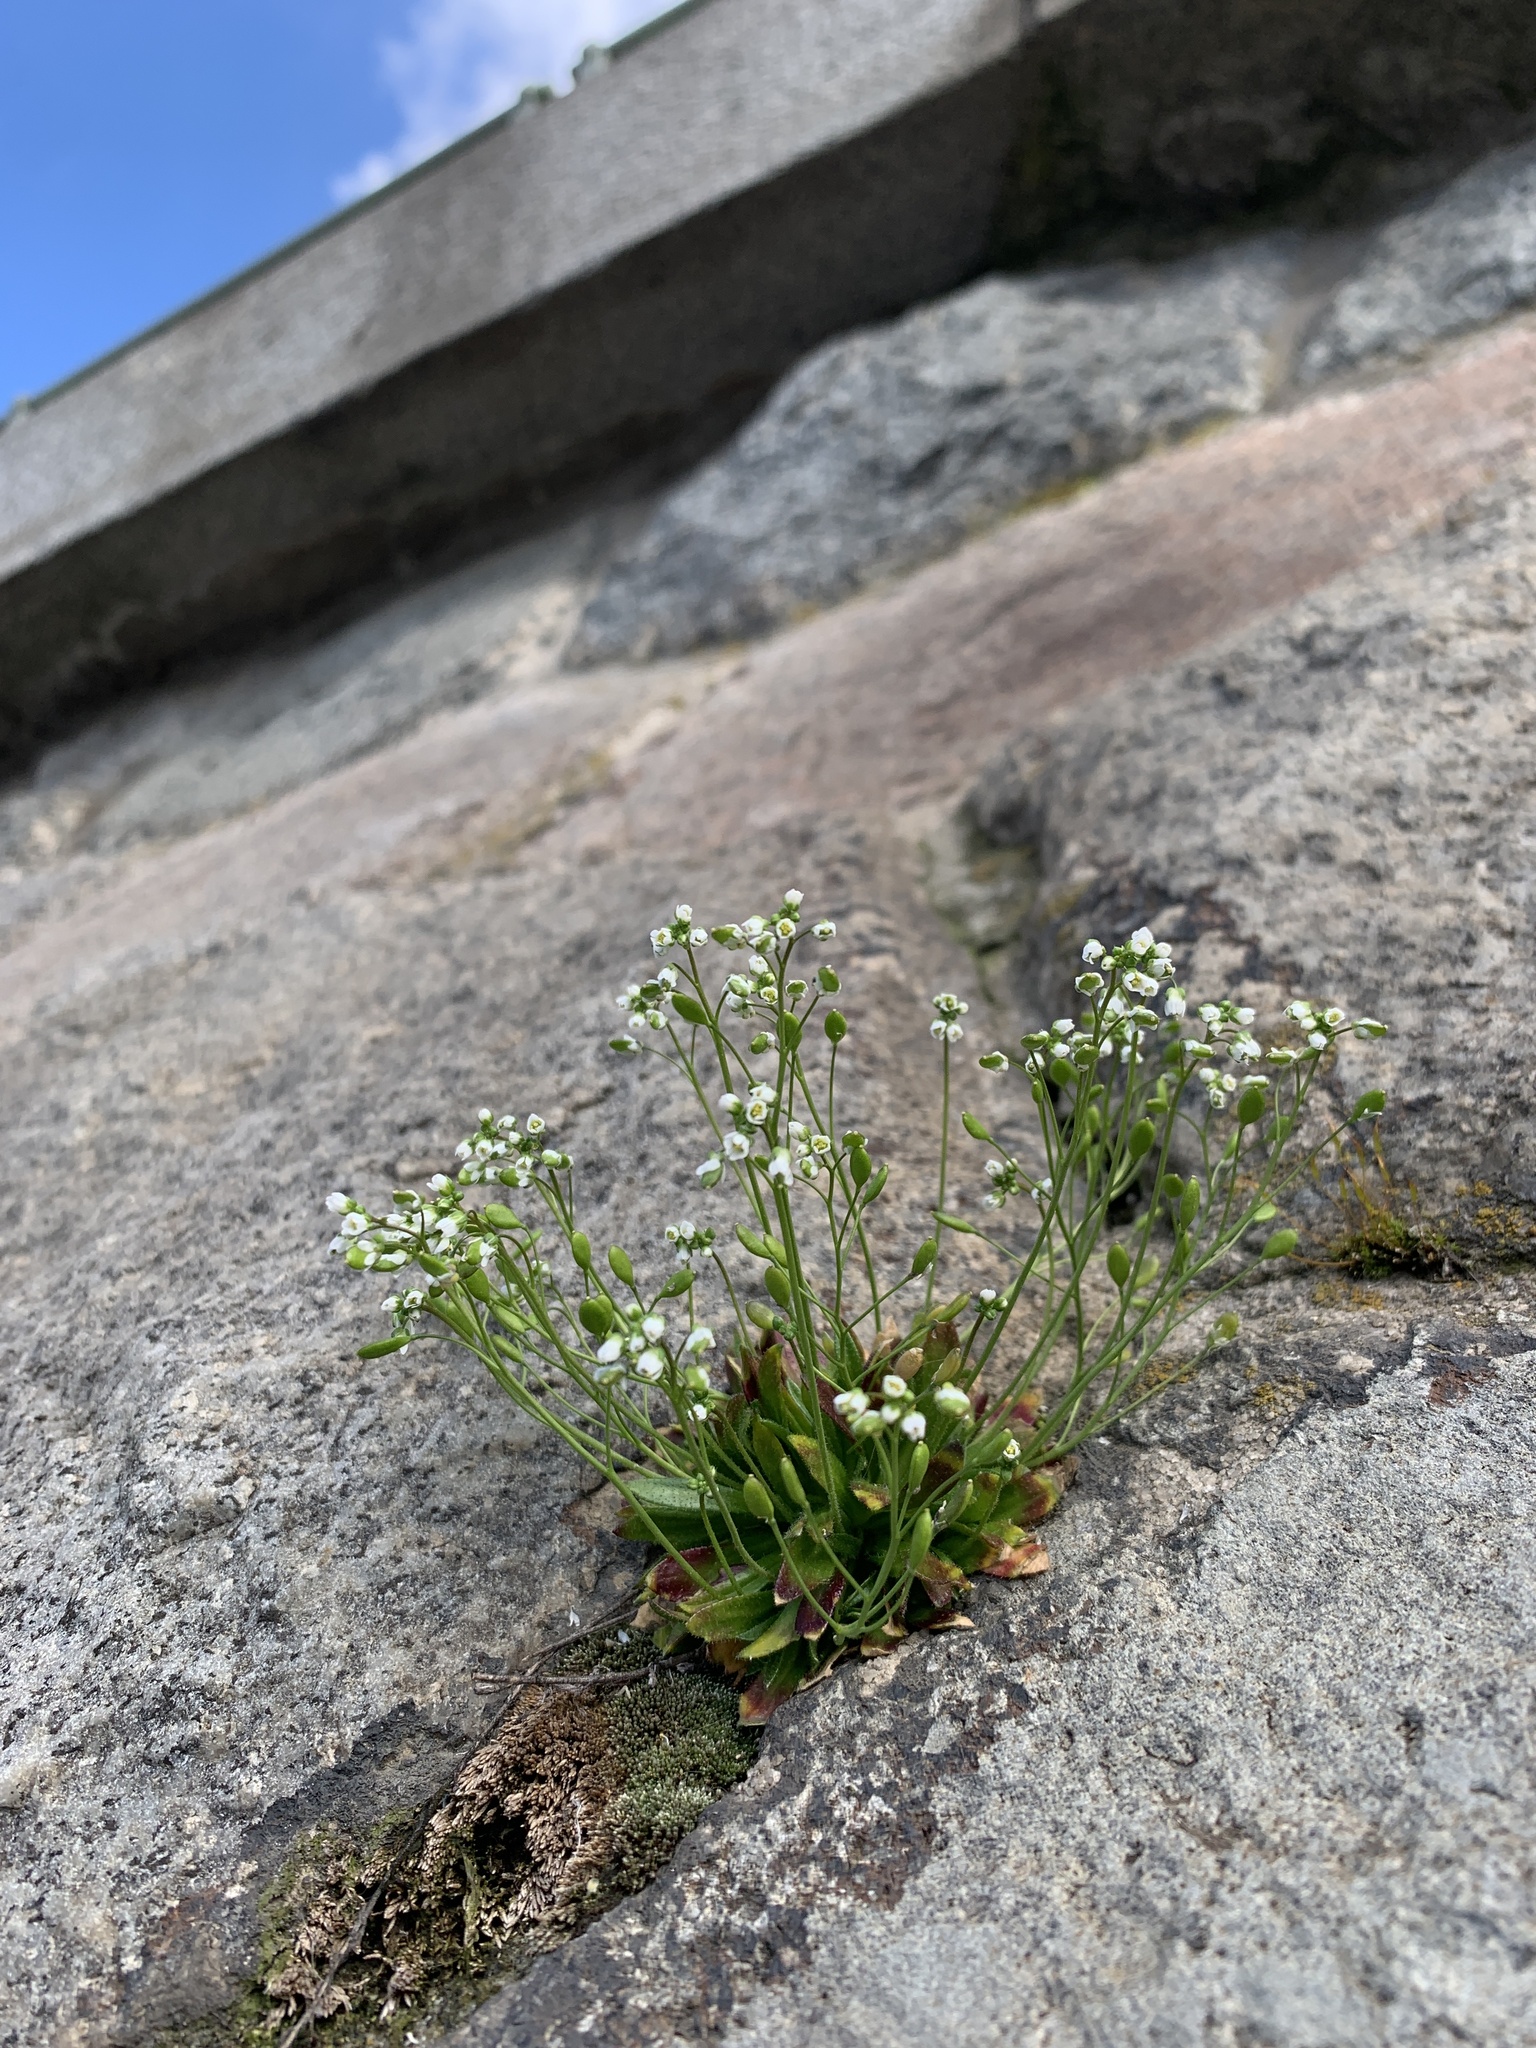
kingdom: Plantae
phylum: Tracheophyta
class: Magnoliopsida
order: Brassicales
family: Brassicaceae
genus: Draba
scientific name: Draba verna
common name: Spring draba
